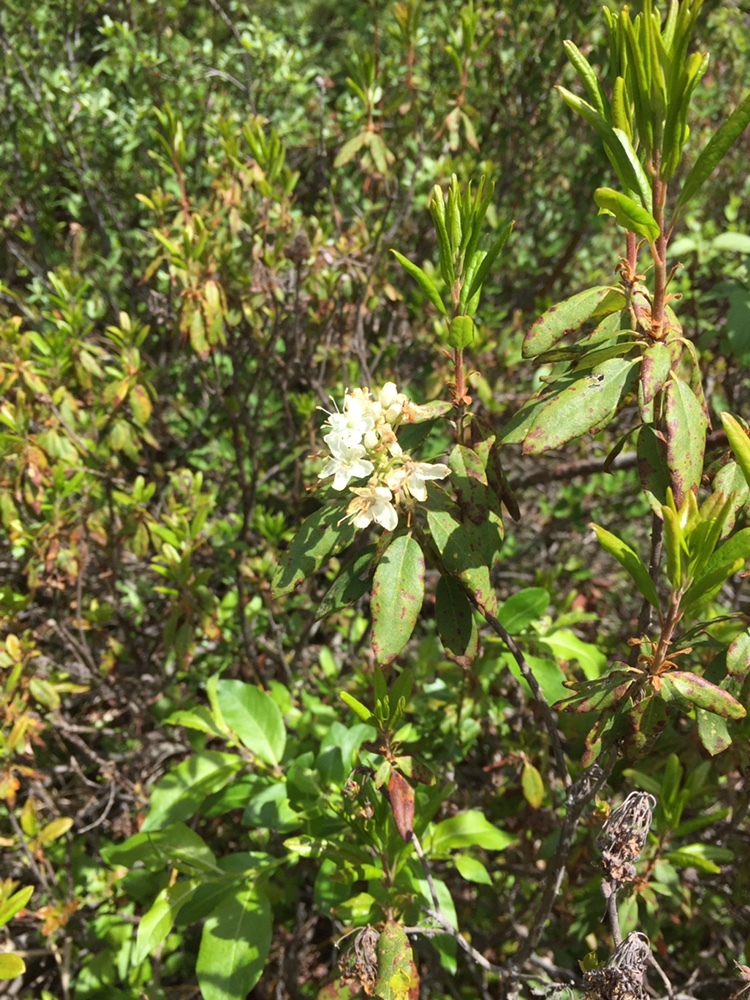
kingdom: Plantae
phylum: Tracheophyta
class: Magnoliopsida
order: Ericales
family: Ericaceae
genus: Rhododendron
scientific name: Rhododendron columbianum
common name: Western labrador tea
